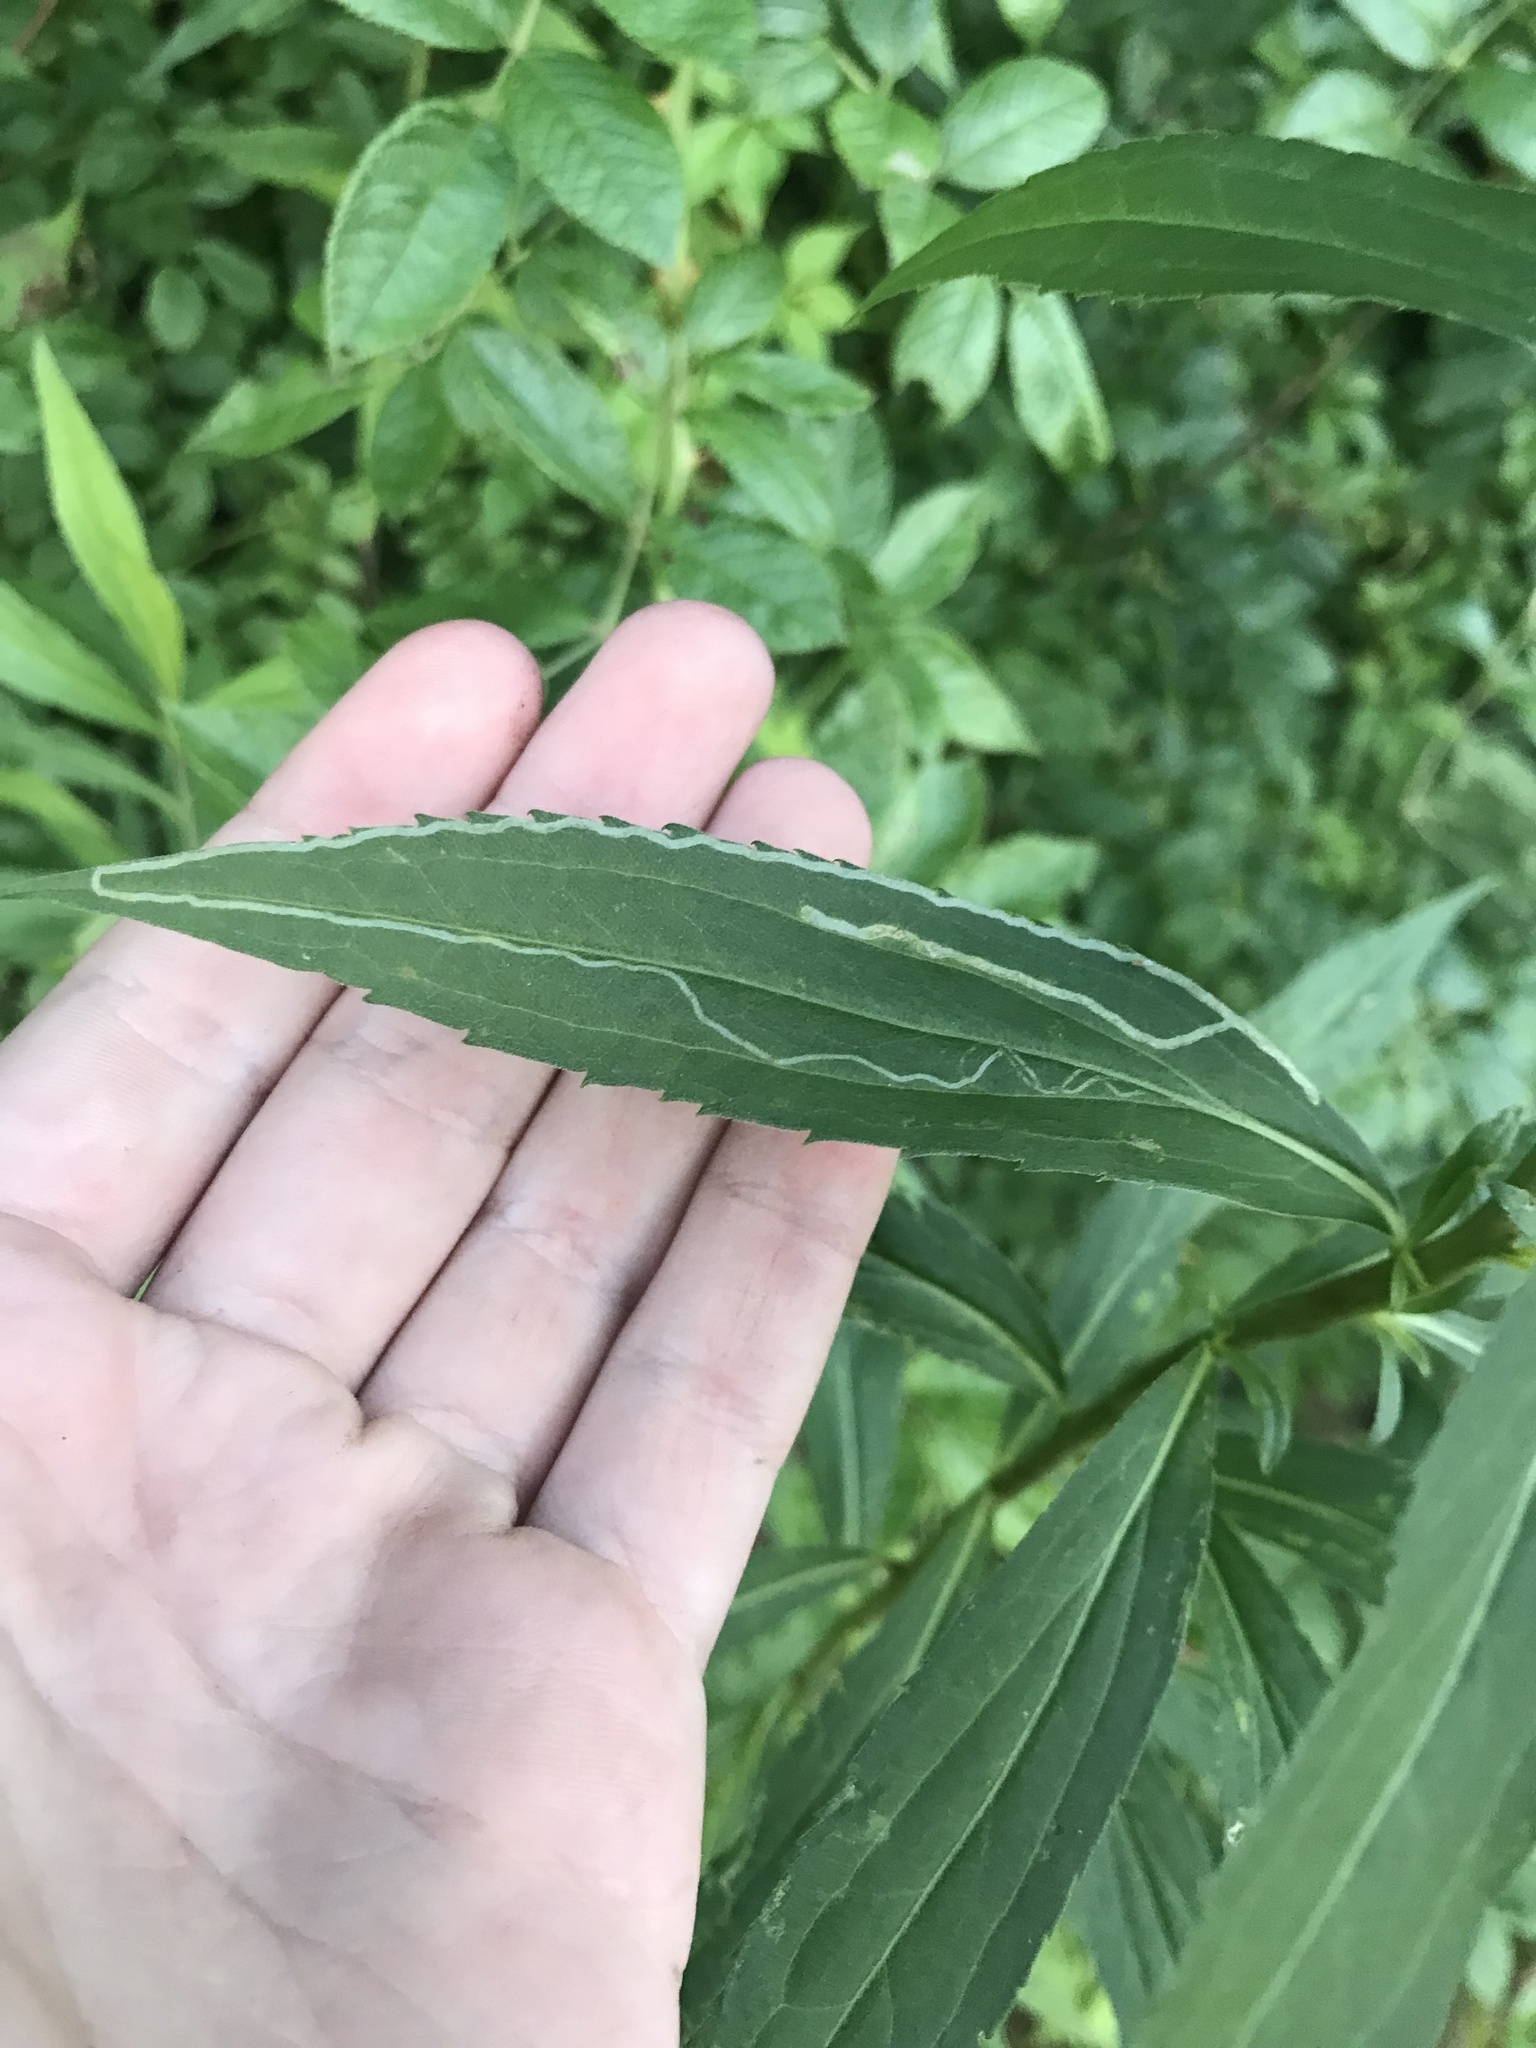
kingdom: Animalia
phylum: Arthropoda
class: Insecta
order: Diptera
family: Agromyzidae
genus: Ophiomyia
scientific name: Ophiomyia maura
